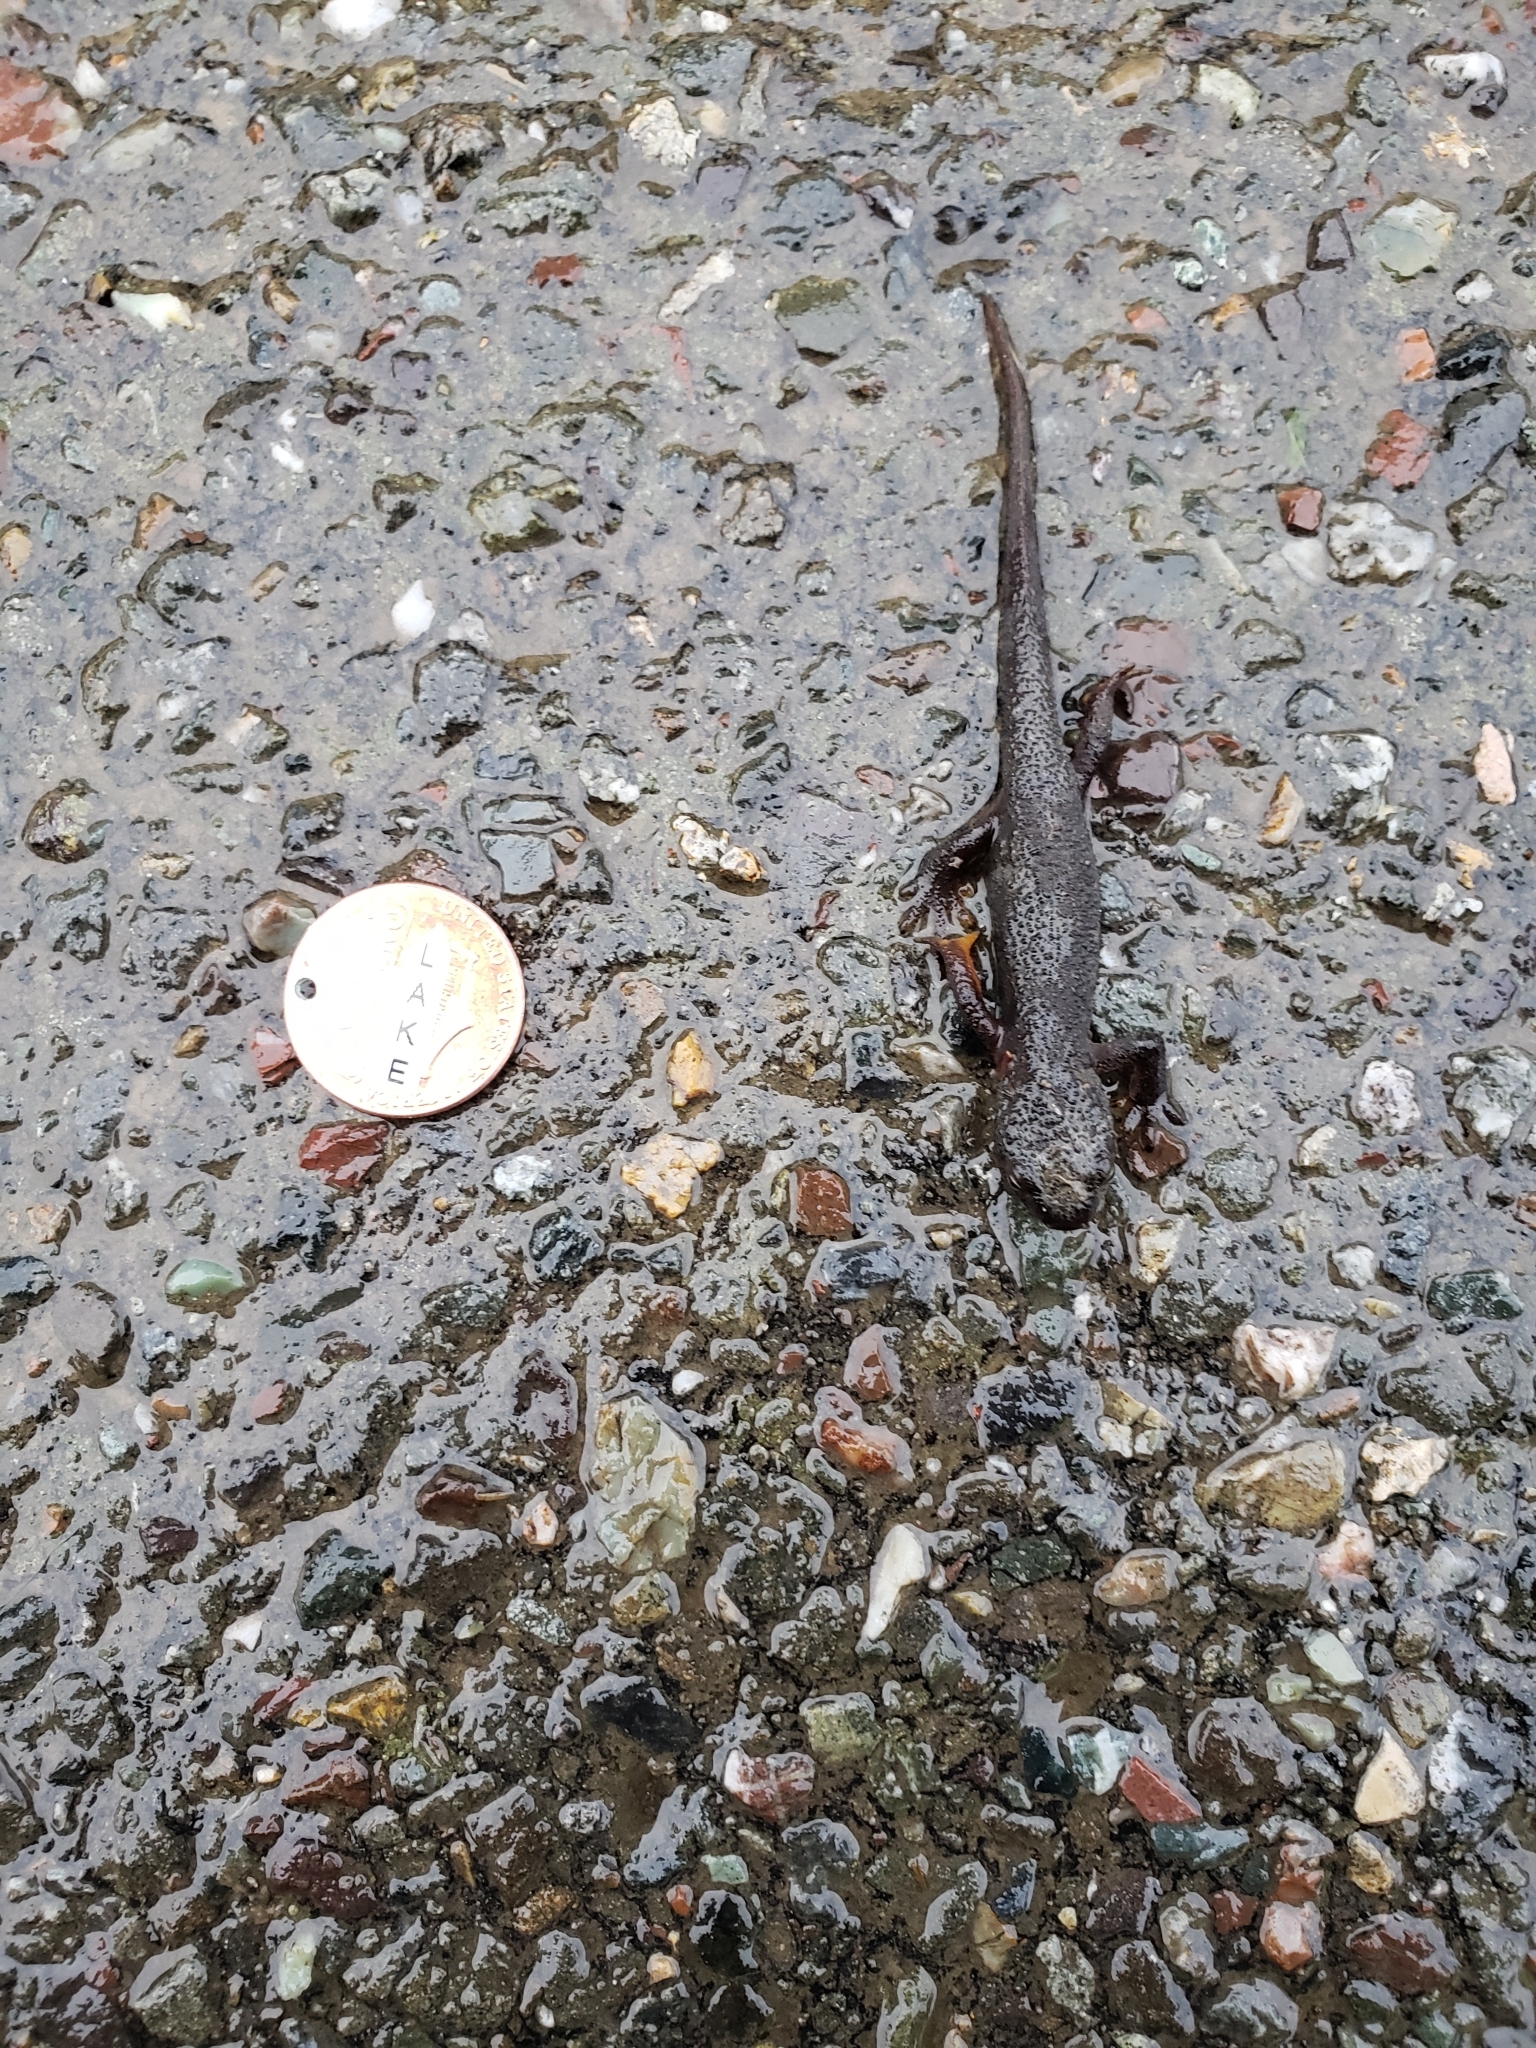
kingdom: Animalia
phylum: Chordata
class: Amphibia
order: Caudata
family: Salamandridae
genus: Taricha
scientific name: Taricha granulosa
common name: Roughskin newt
